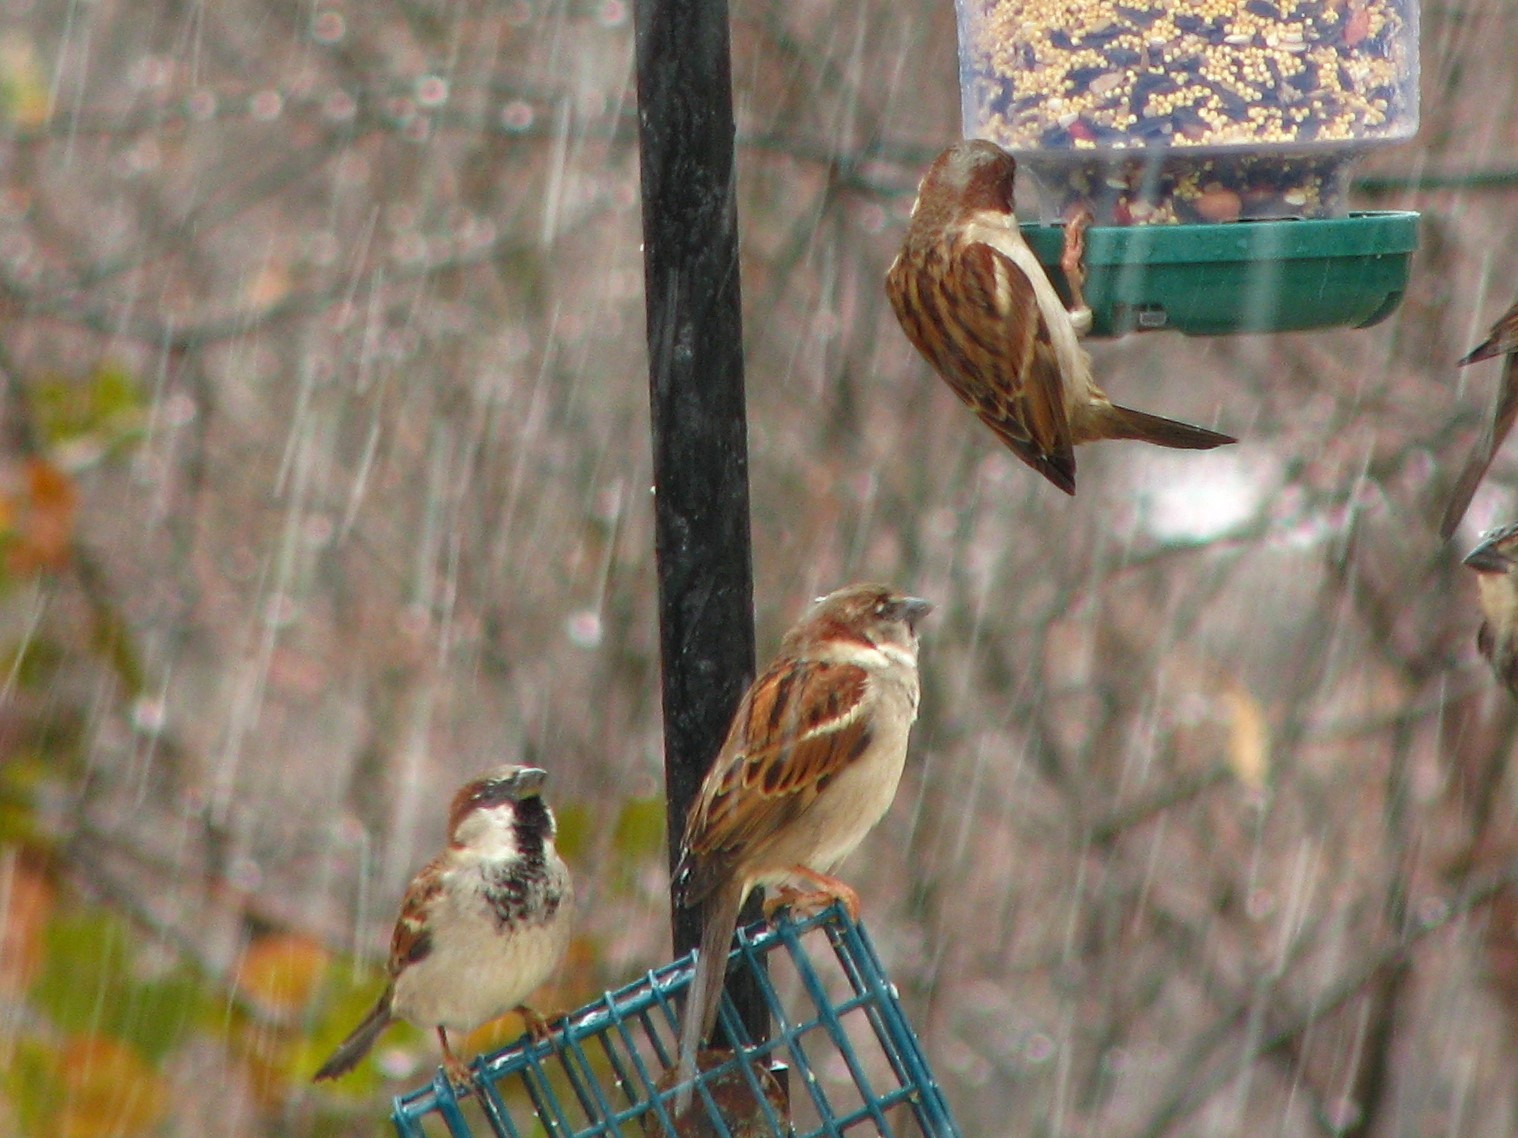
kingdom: Animalia
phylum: Chordata
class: Aves
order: Passeriformes
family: Passeridae
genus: Passer
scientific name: Passer domesticus
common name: House sparrow
